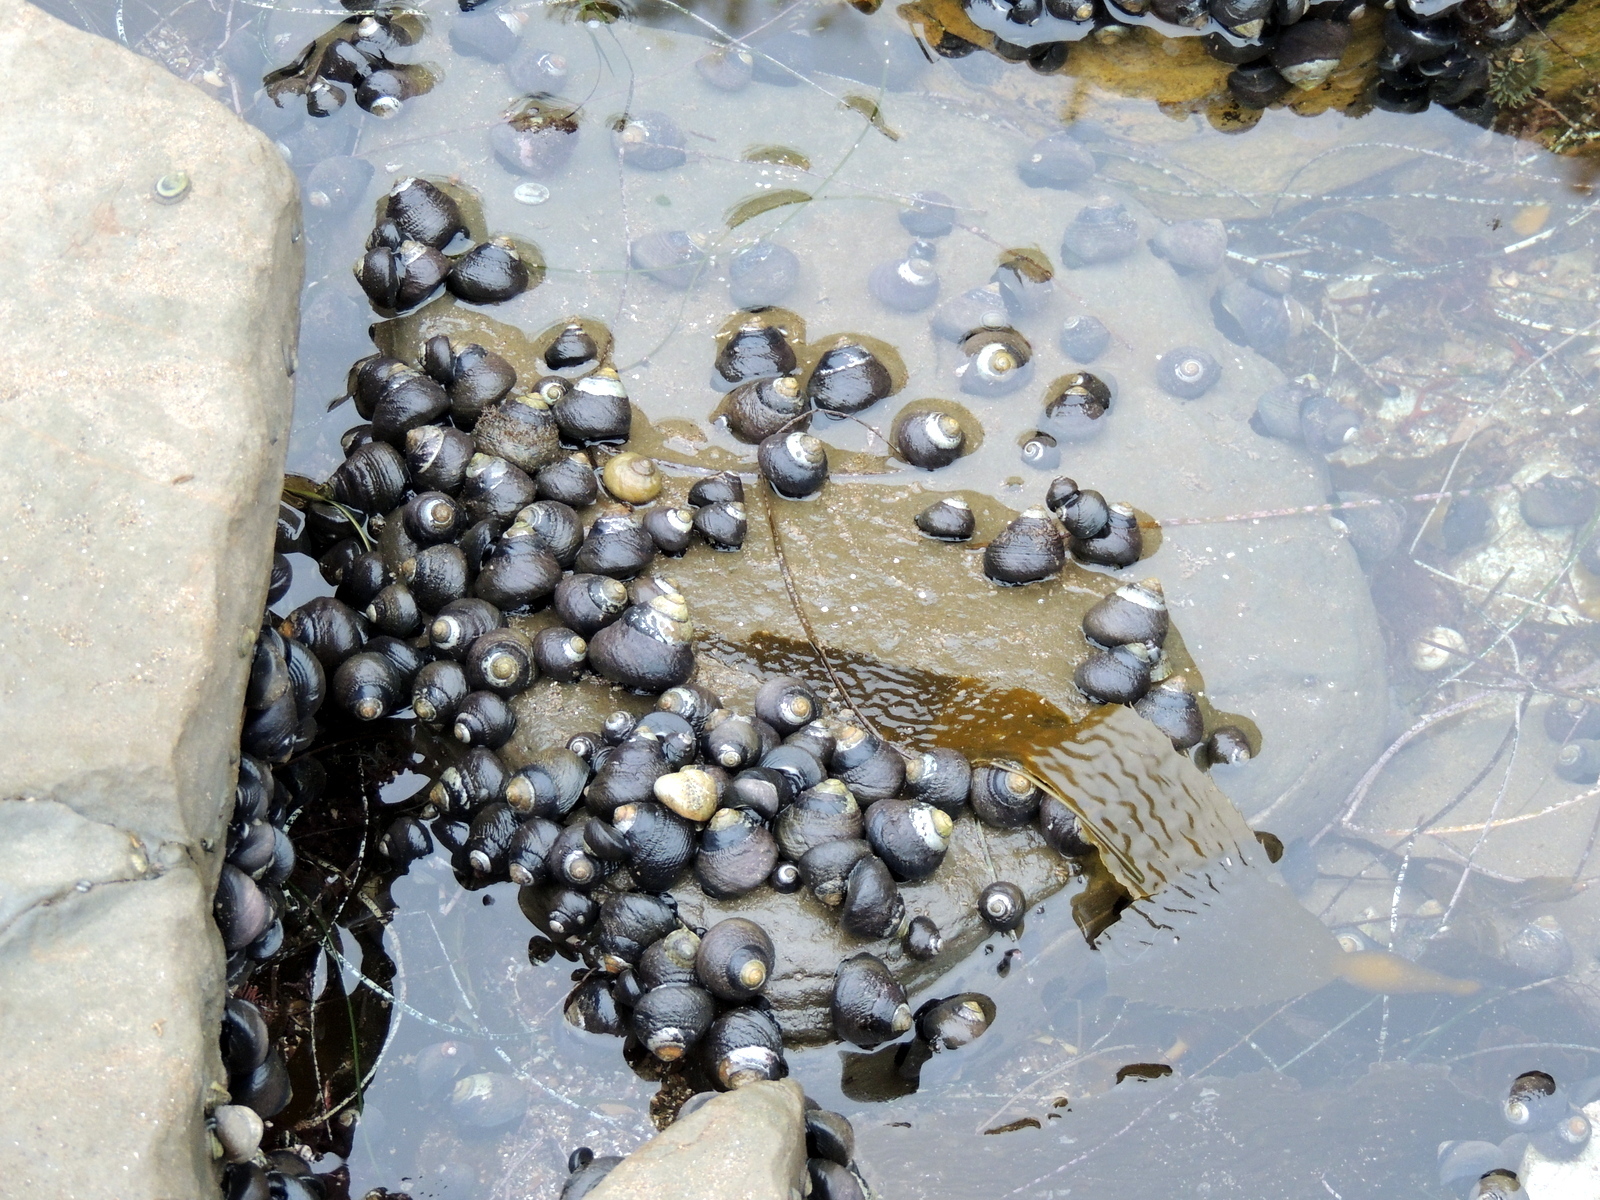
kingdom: Animalia
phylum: Mollusca
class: Gastropoda
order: Trochida
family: Tegulidae
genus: Tegula
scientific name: Tegula funebralis
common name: Black tegula
